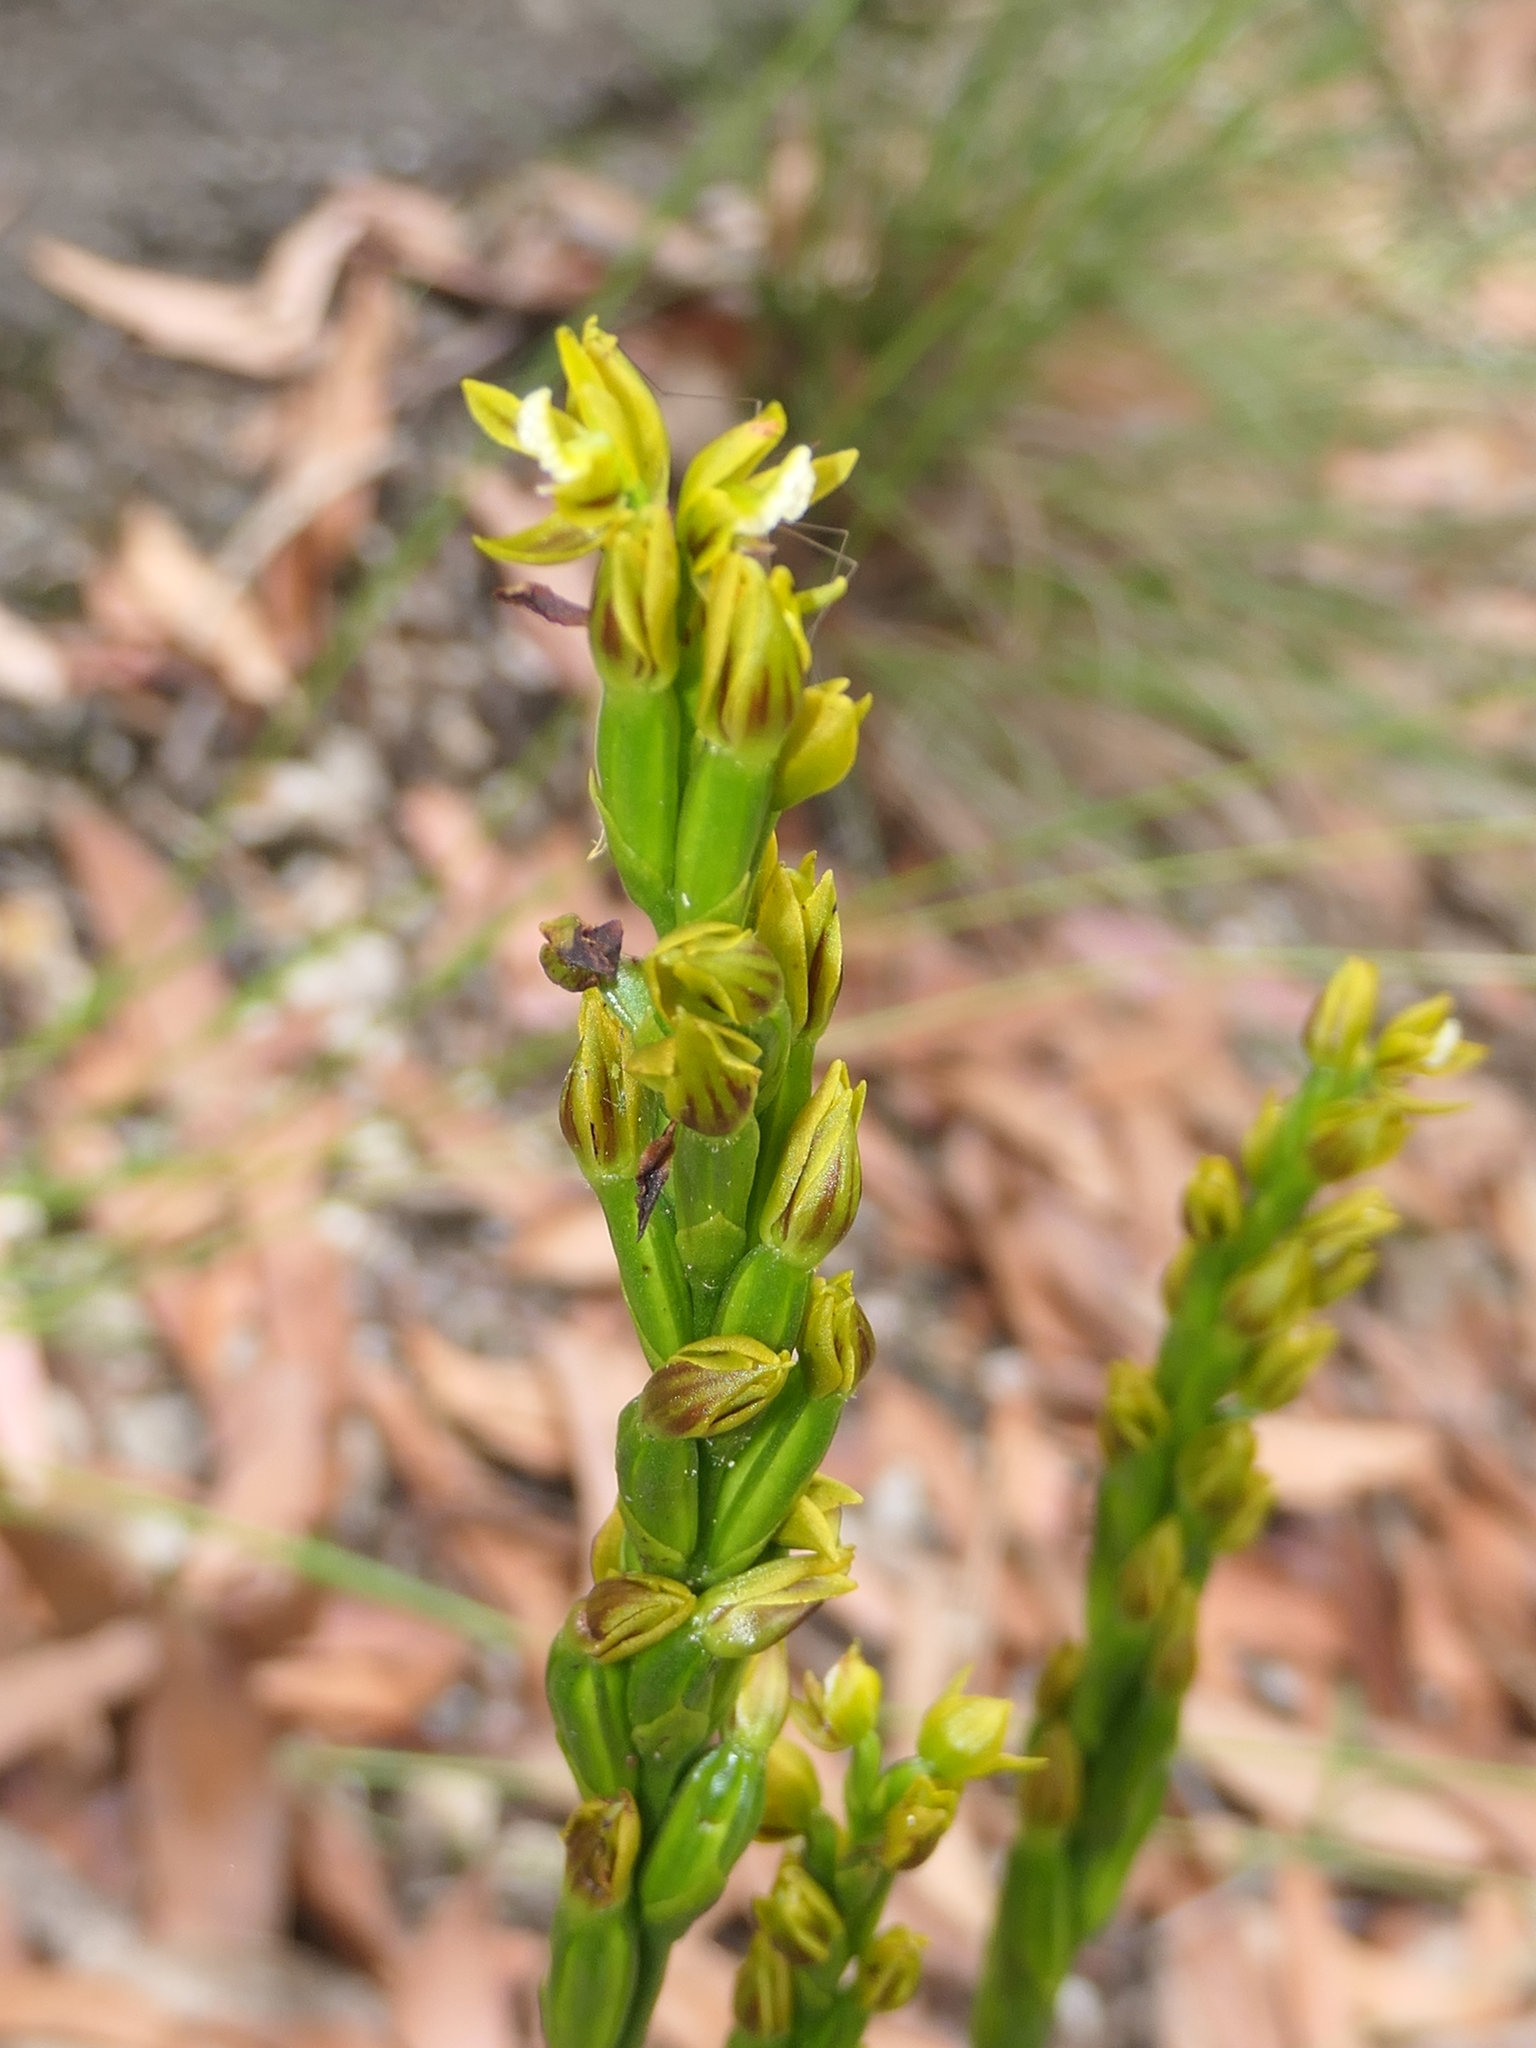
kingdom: Plantae
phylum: Tracheophyta
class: Liliopsida
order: Asparagales
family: Orchidaceae
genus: Prasophyllum
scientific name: Prasophyllum flavum
